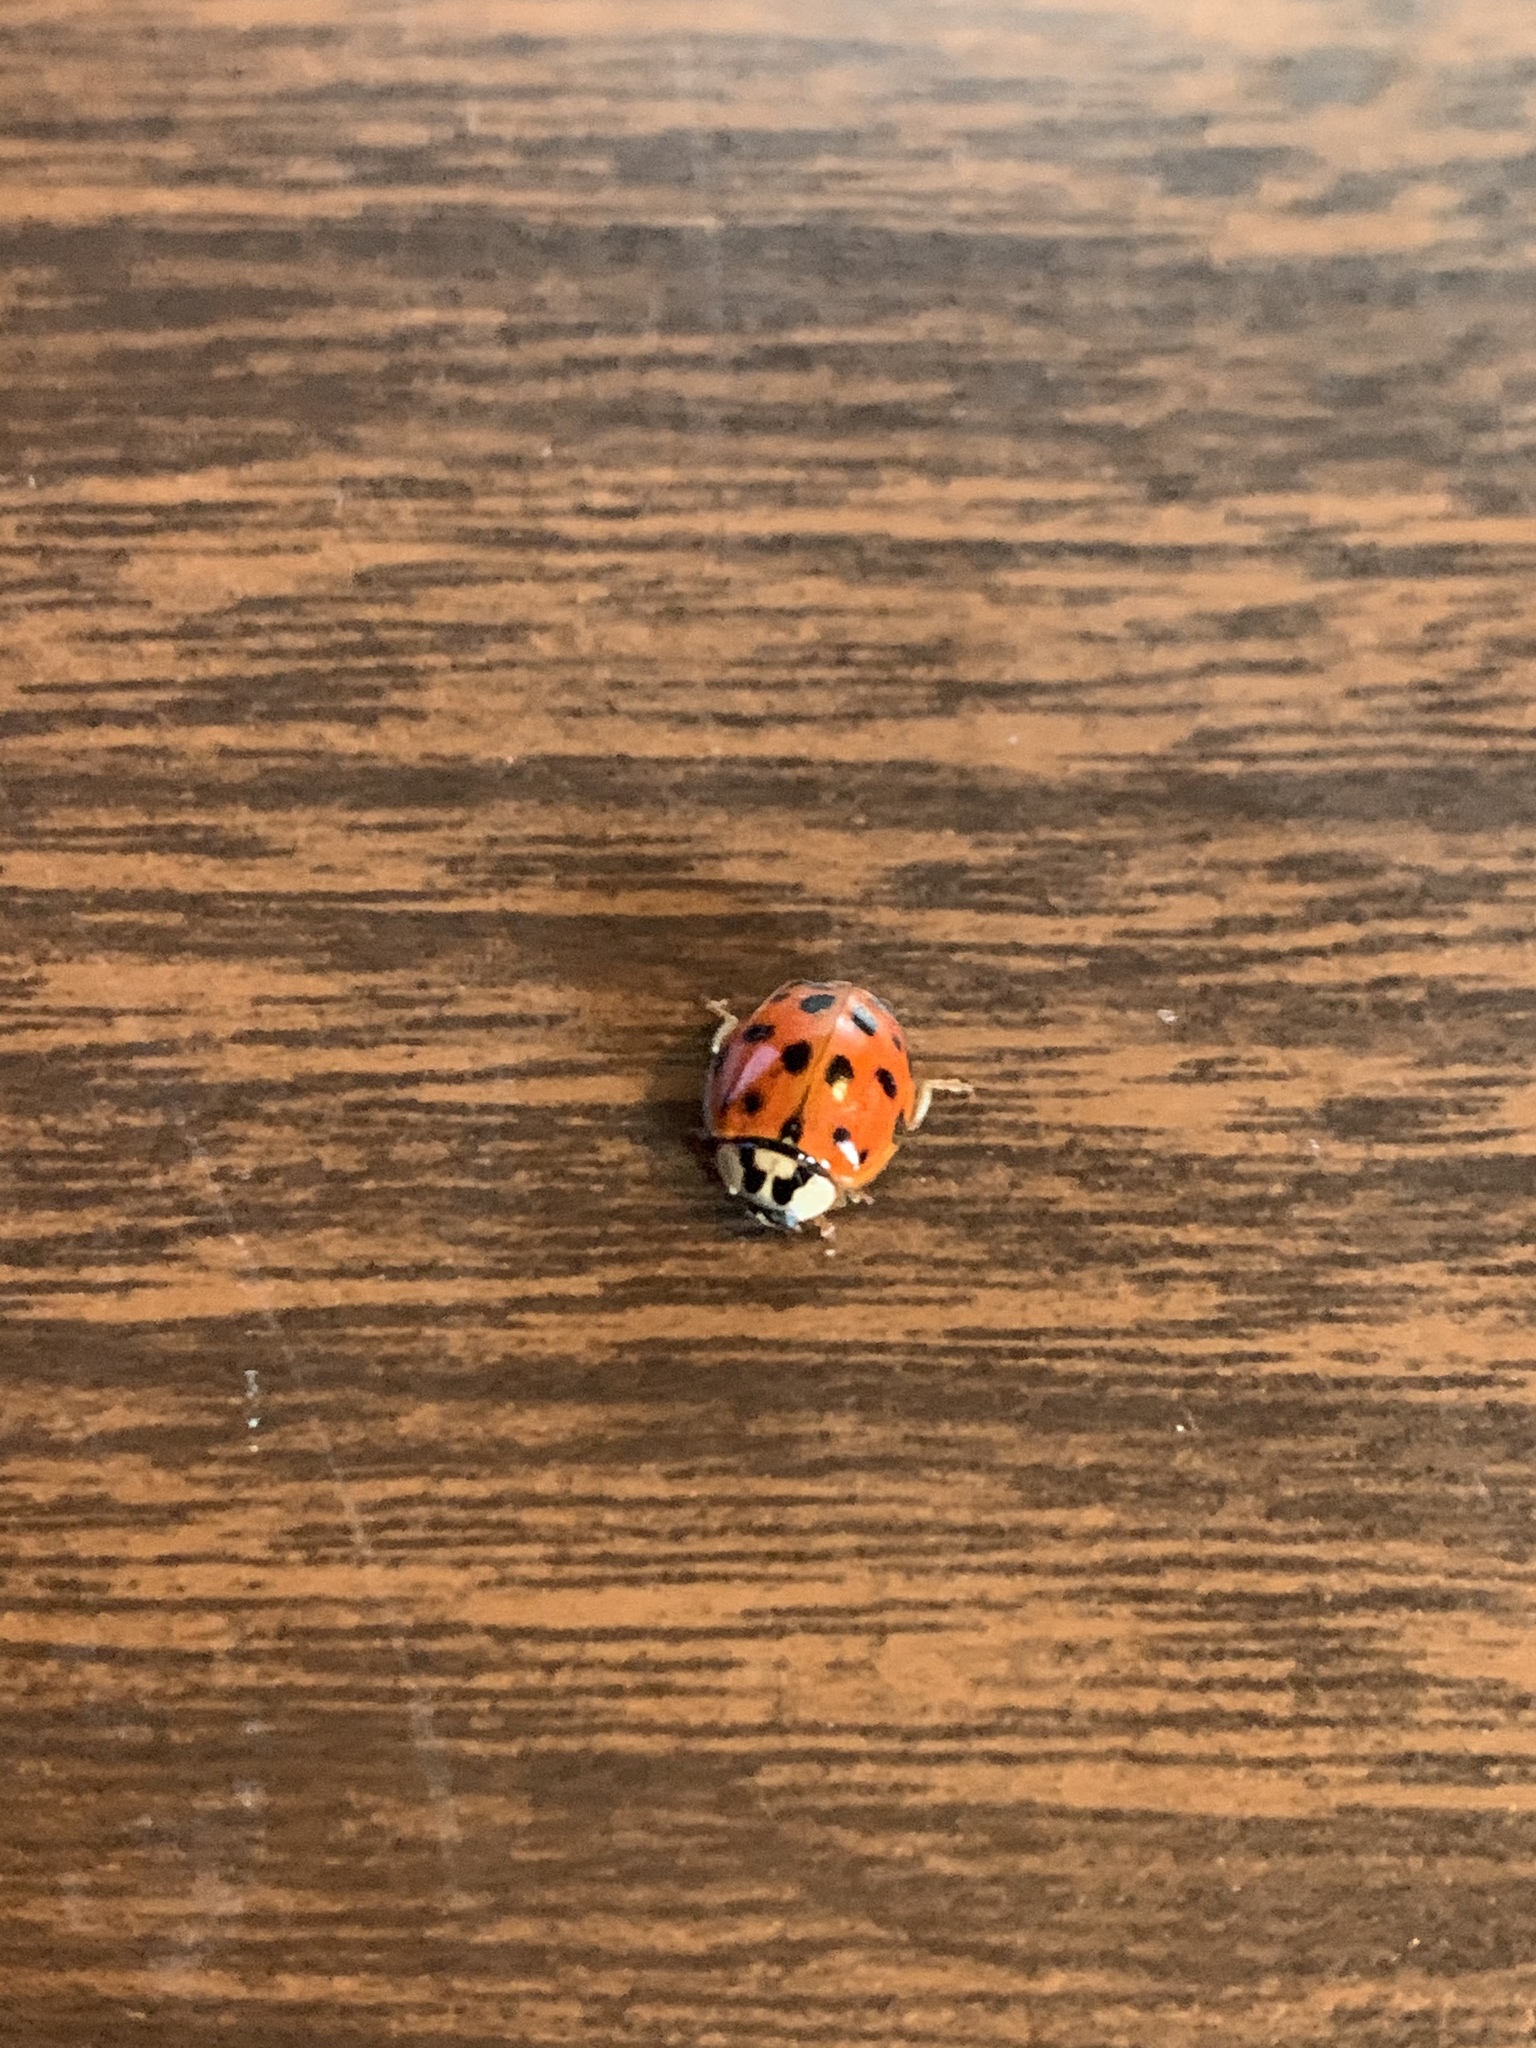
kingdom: Animalia
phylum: Arthropoda
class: Insecta
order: Coleoptera
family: Coccinellidae
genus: Harmonia
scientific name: Harmonia axyridis
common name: Harlequin ladybird
